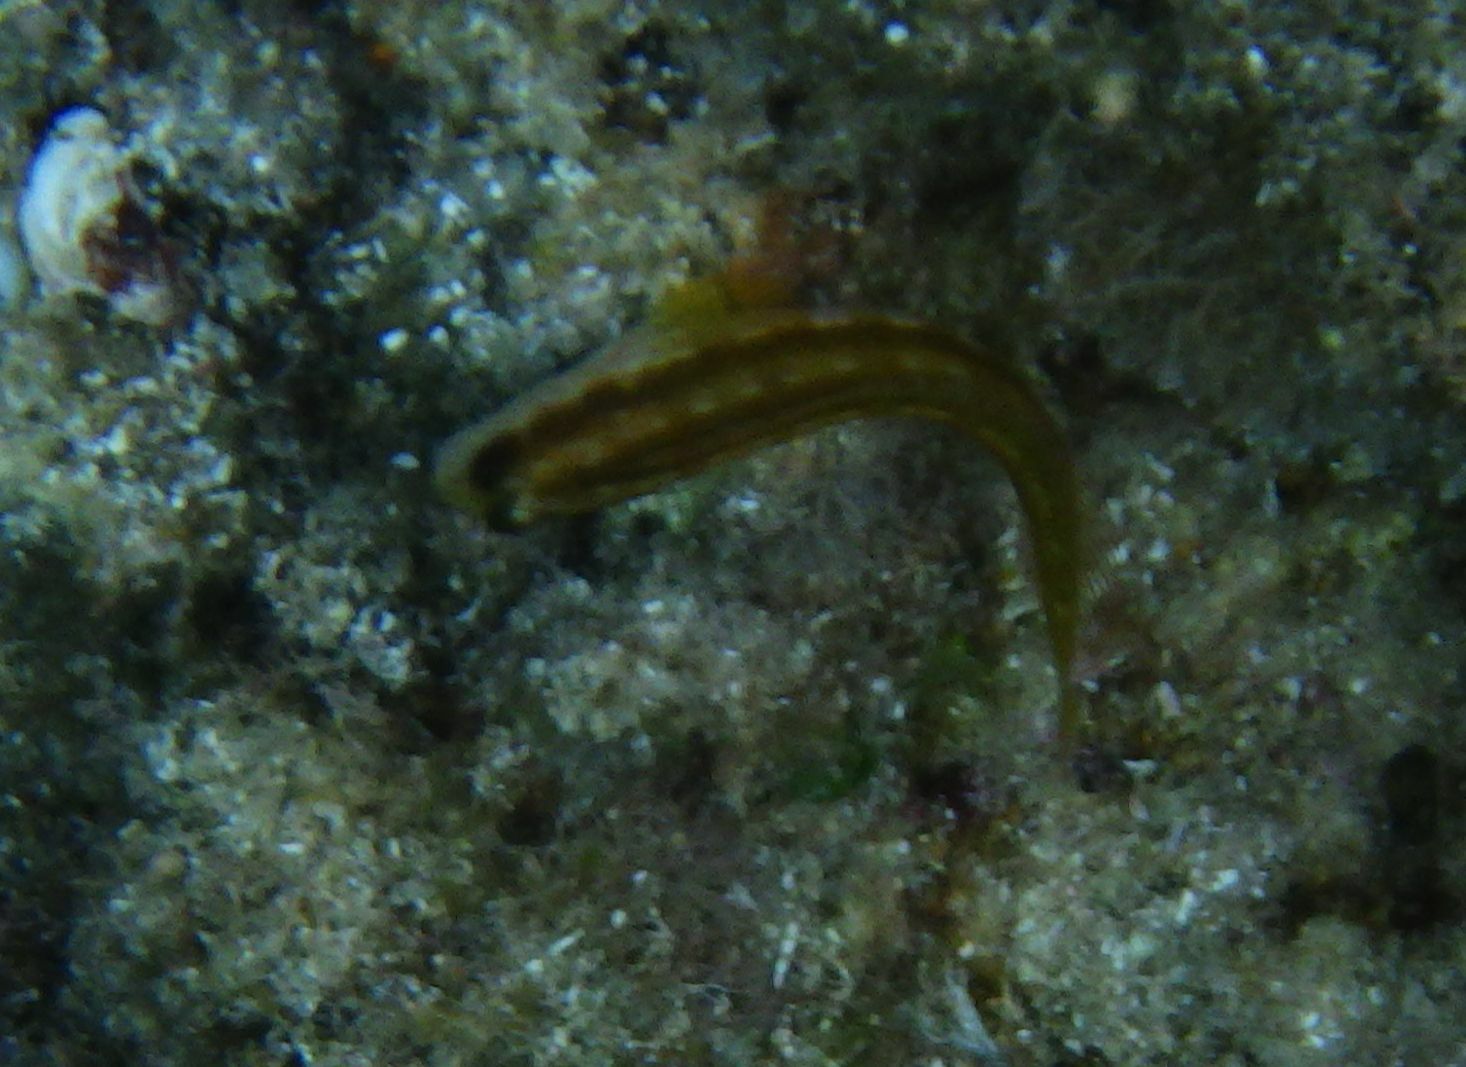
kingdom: Animalia
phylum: Chordata
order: Perciformes
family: Blenniidae
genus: Parablennius
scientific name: Parablennius pilicornis
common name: Ringneck blenny
